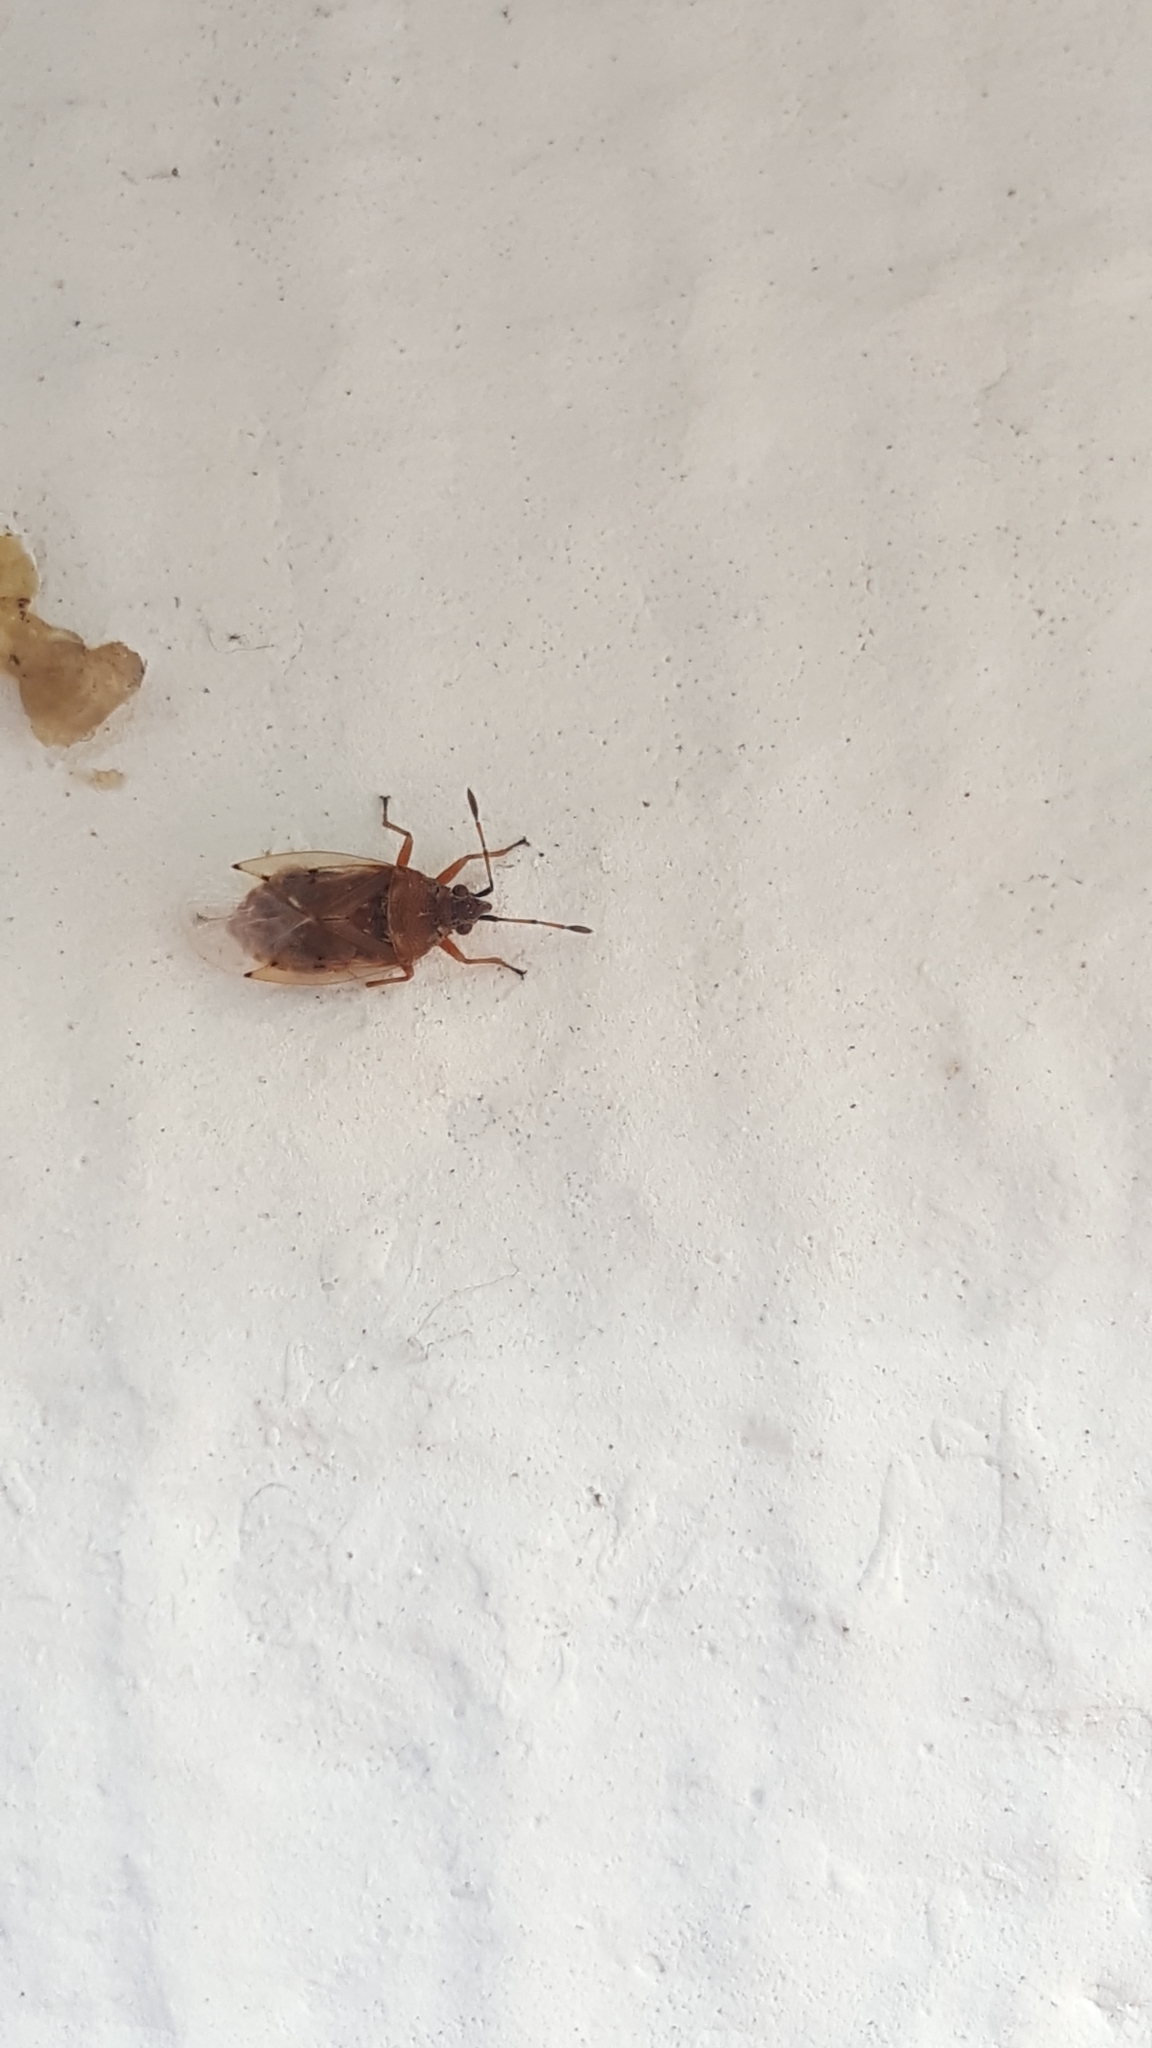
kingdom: Animalia
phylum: Arthropoda
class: Insecta
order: Hemiptera
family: Lygaeidae
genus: Kleidocerys
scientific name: Kleidocerys resedae
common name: Birch catkin bug
